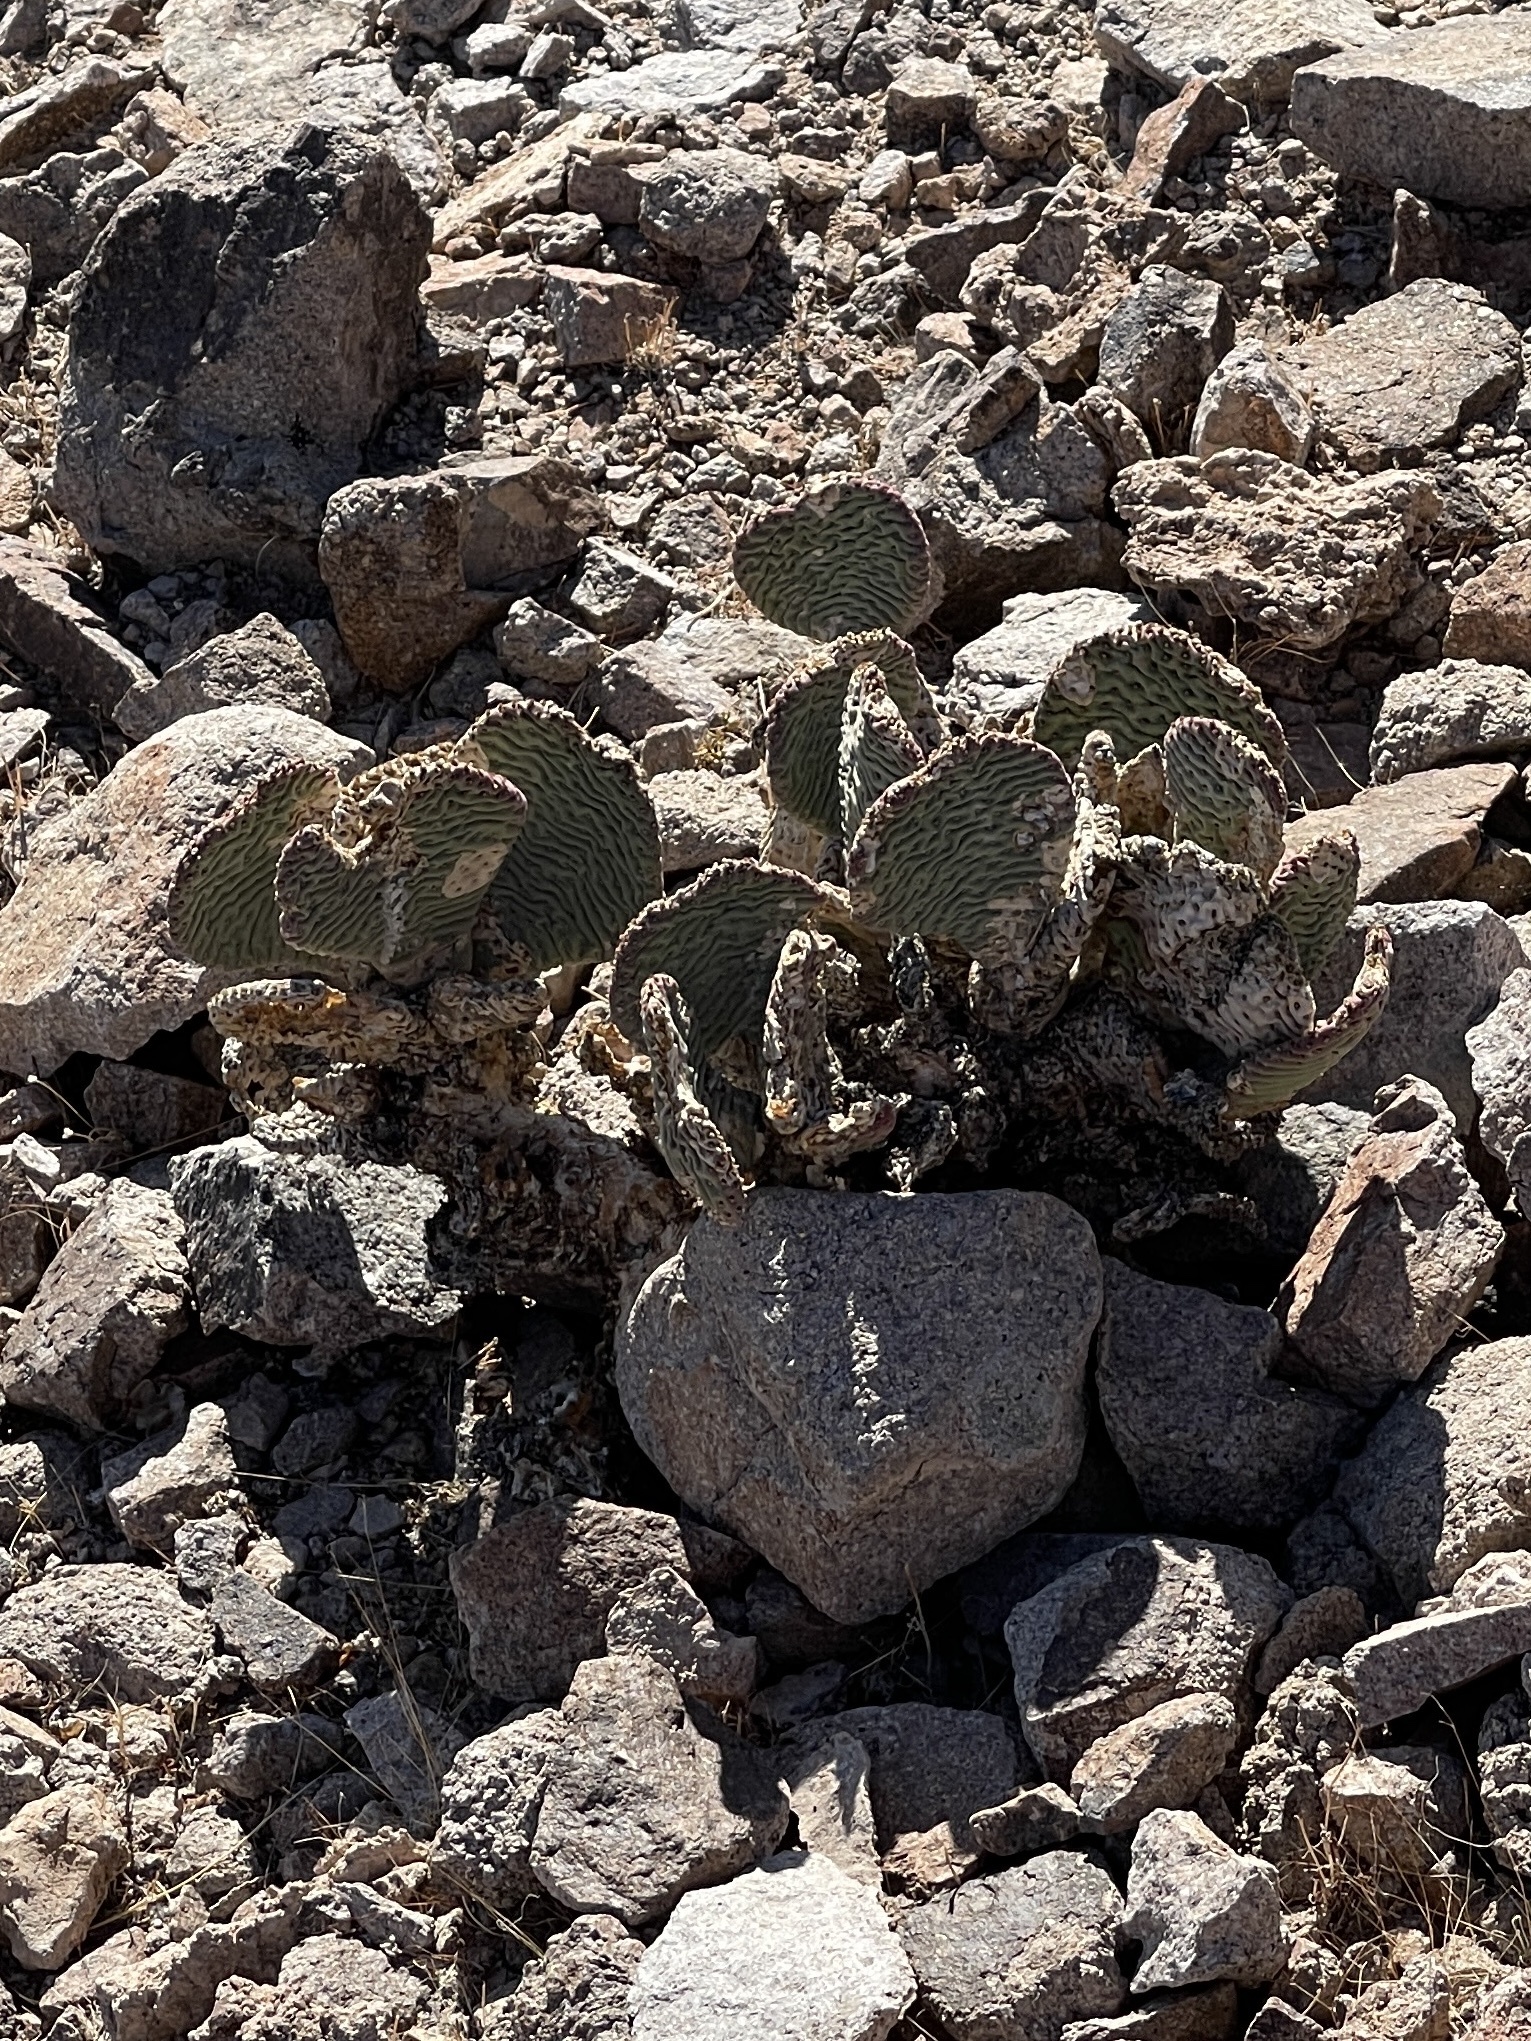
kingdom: Plantae
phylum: Tracheophyta
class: Magnoliopsida
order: Caryophyllales
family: Cactaceae
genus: Opuntia
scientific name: Opuntia basilaris
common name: Beavertail prickly-pear
